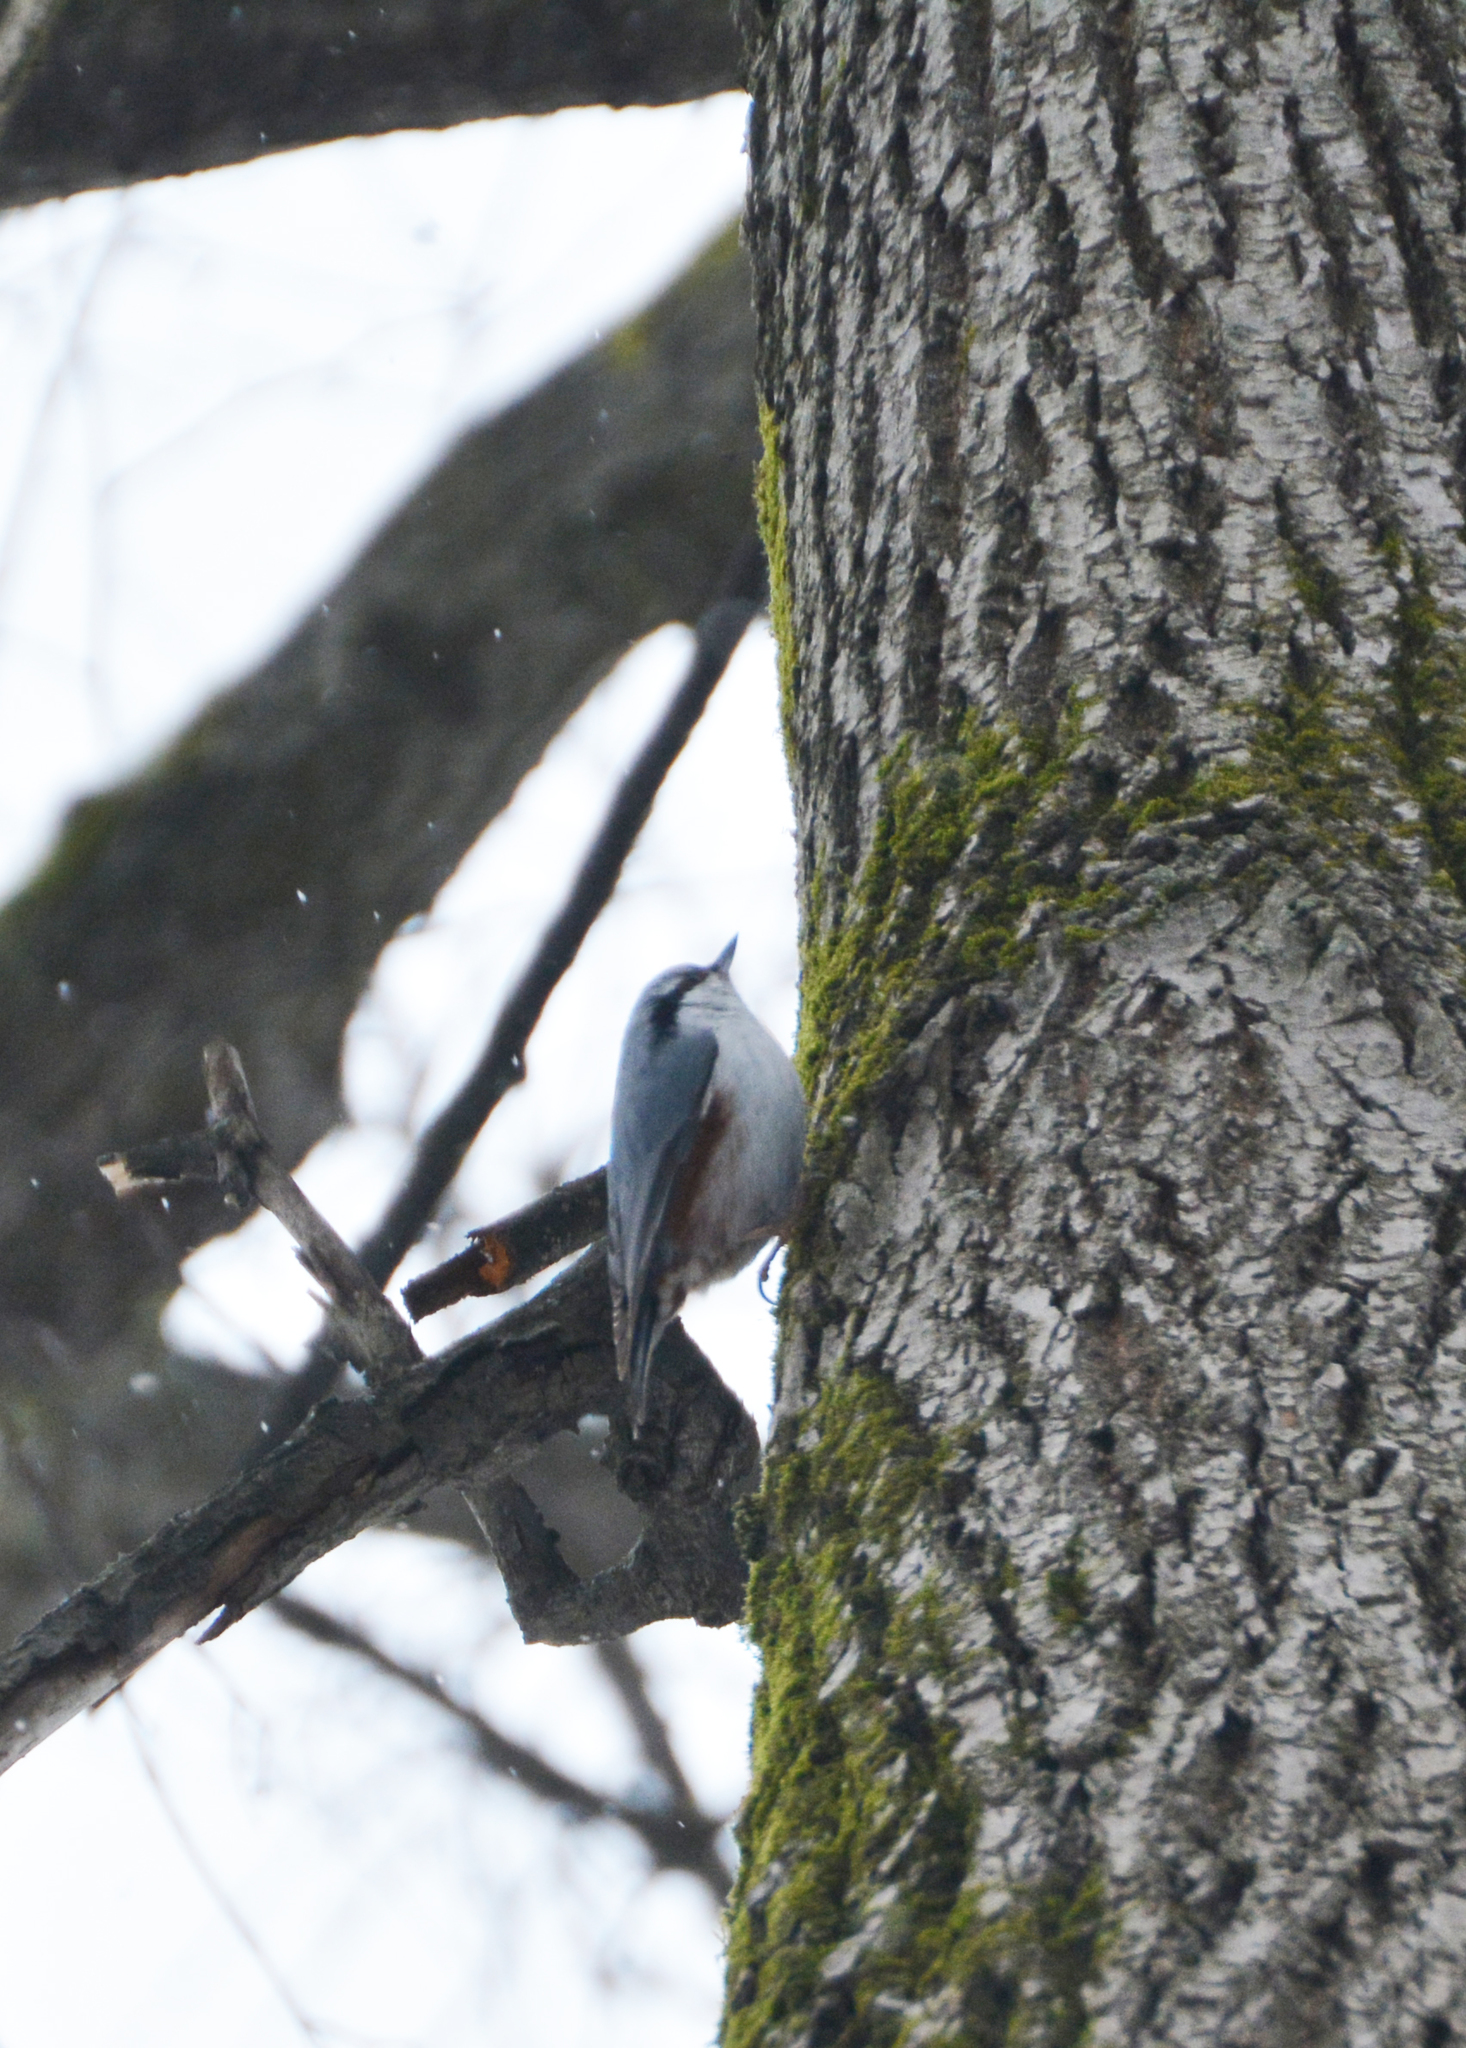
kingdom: Animalia
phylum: Chordata
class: Aves
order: Passeriformes
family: Sittidae
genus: Sitta
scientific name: Sitta europaea
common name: Eurasian nuthatch
